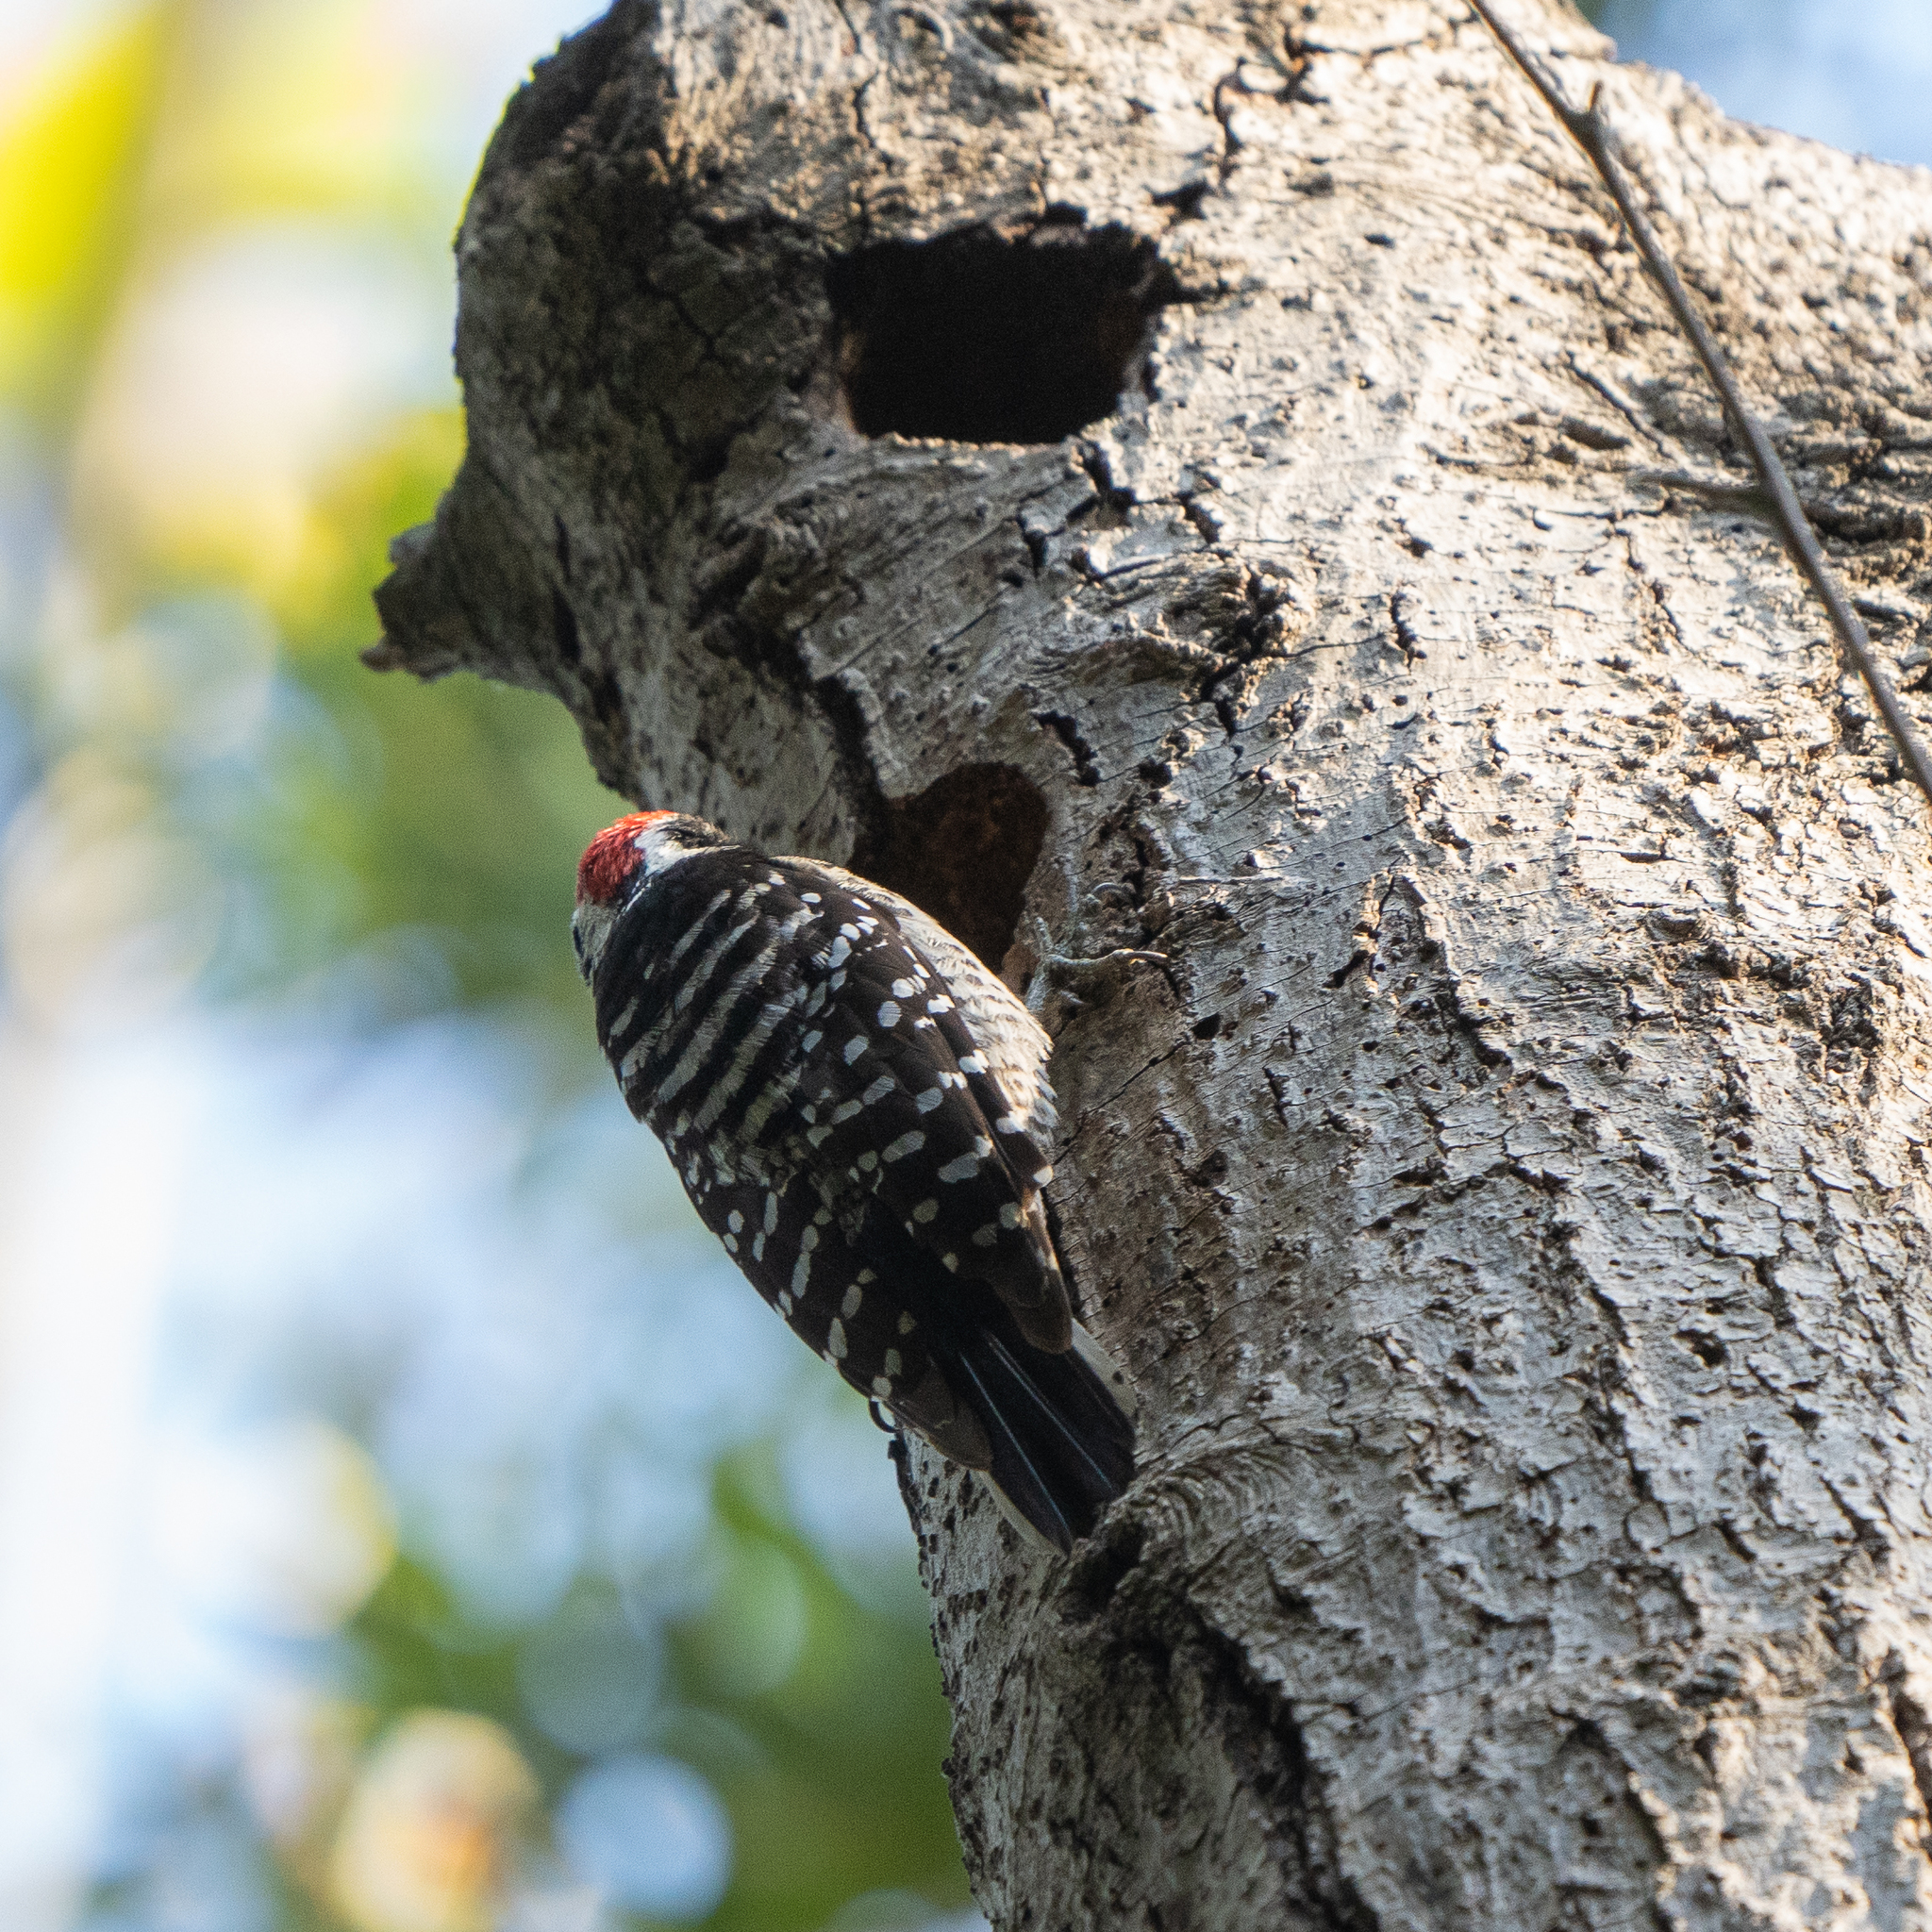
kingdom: Animalia
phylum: Chordata
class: Aves
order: Piciformes
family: Picidae
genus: Dryobates
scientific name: Dryobates nuttallii
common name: Nuttall's woodpecker
